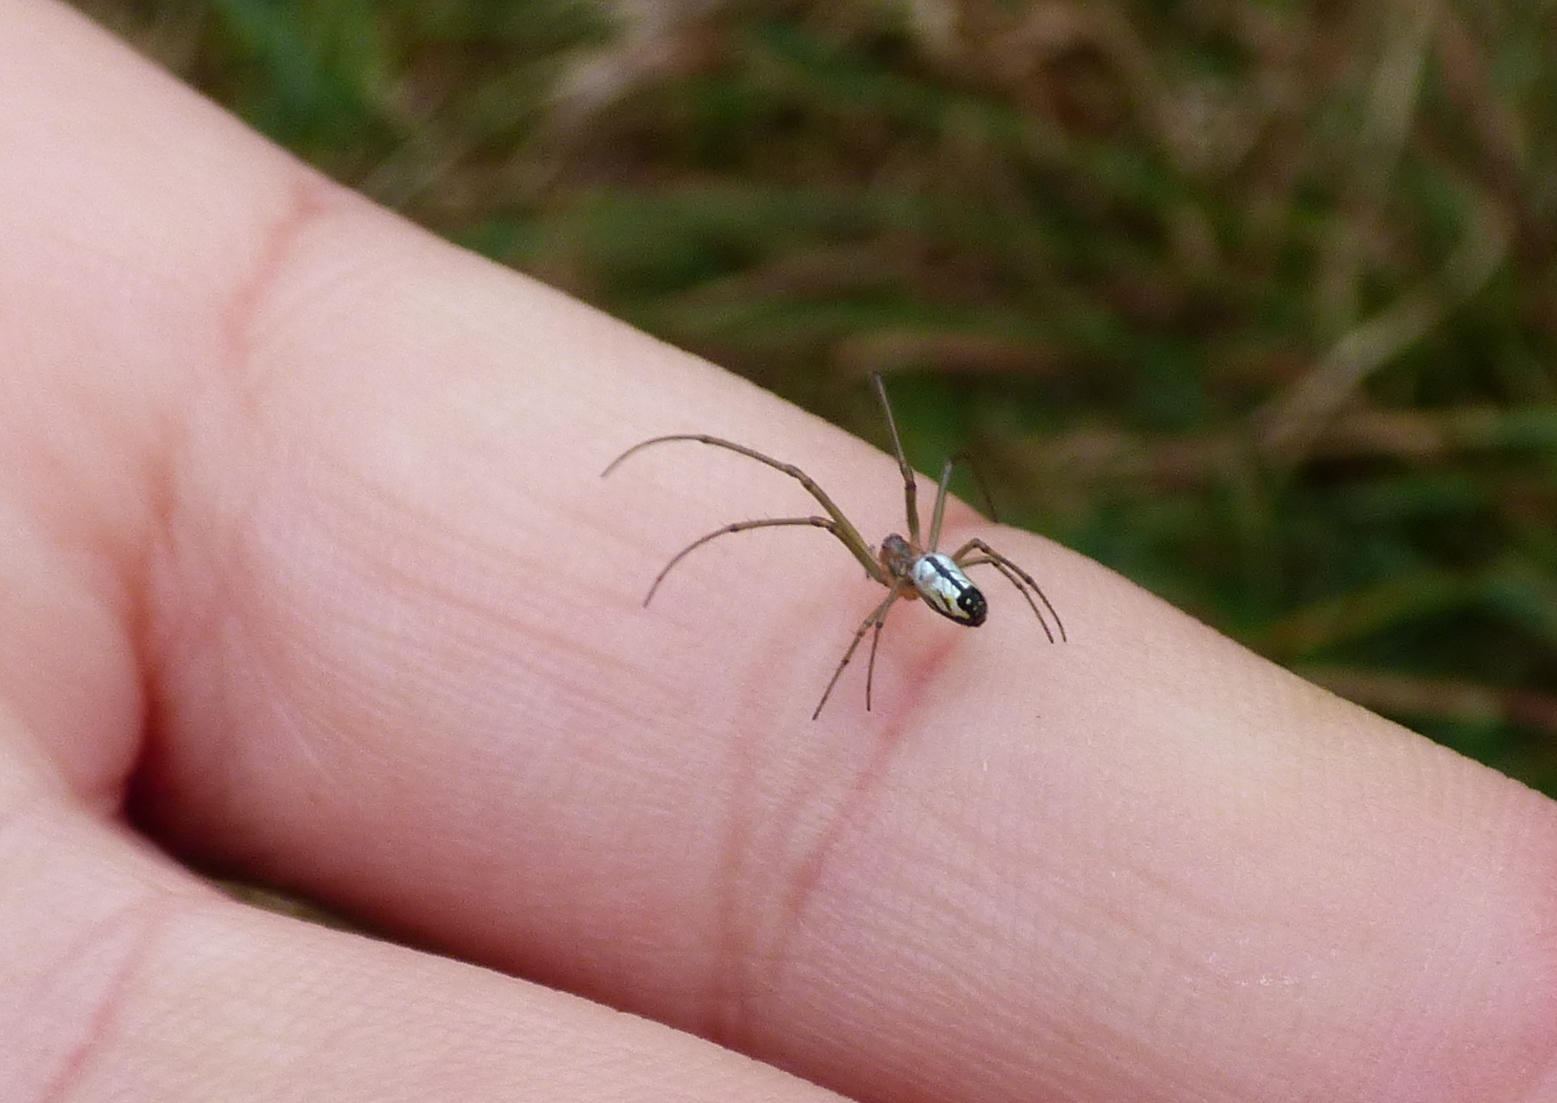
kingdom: Animalia
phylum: Arthropoda
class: Arachnida
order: Araneae
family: Tetragnathidae
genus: Leucauge
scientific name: Leucauge volupis
